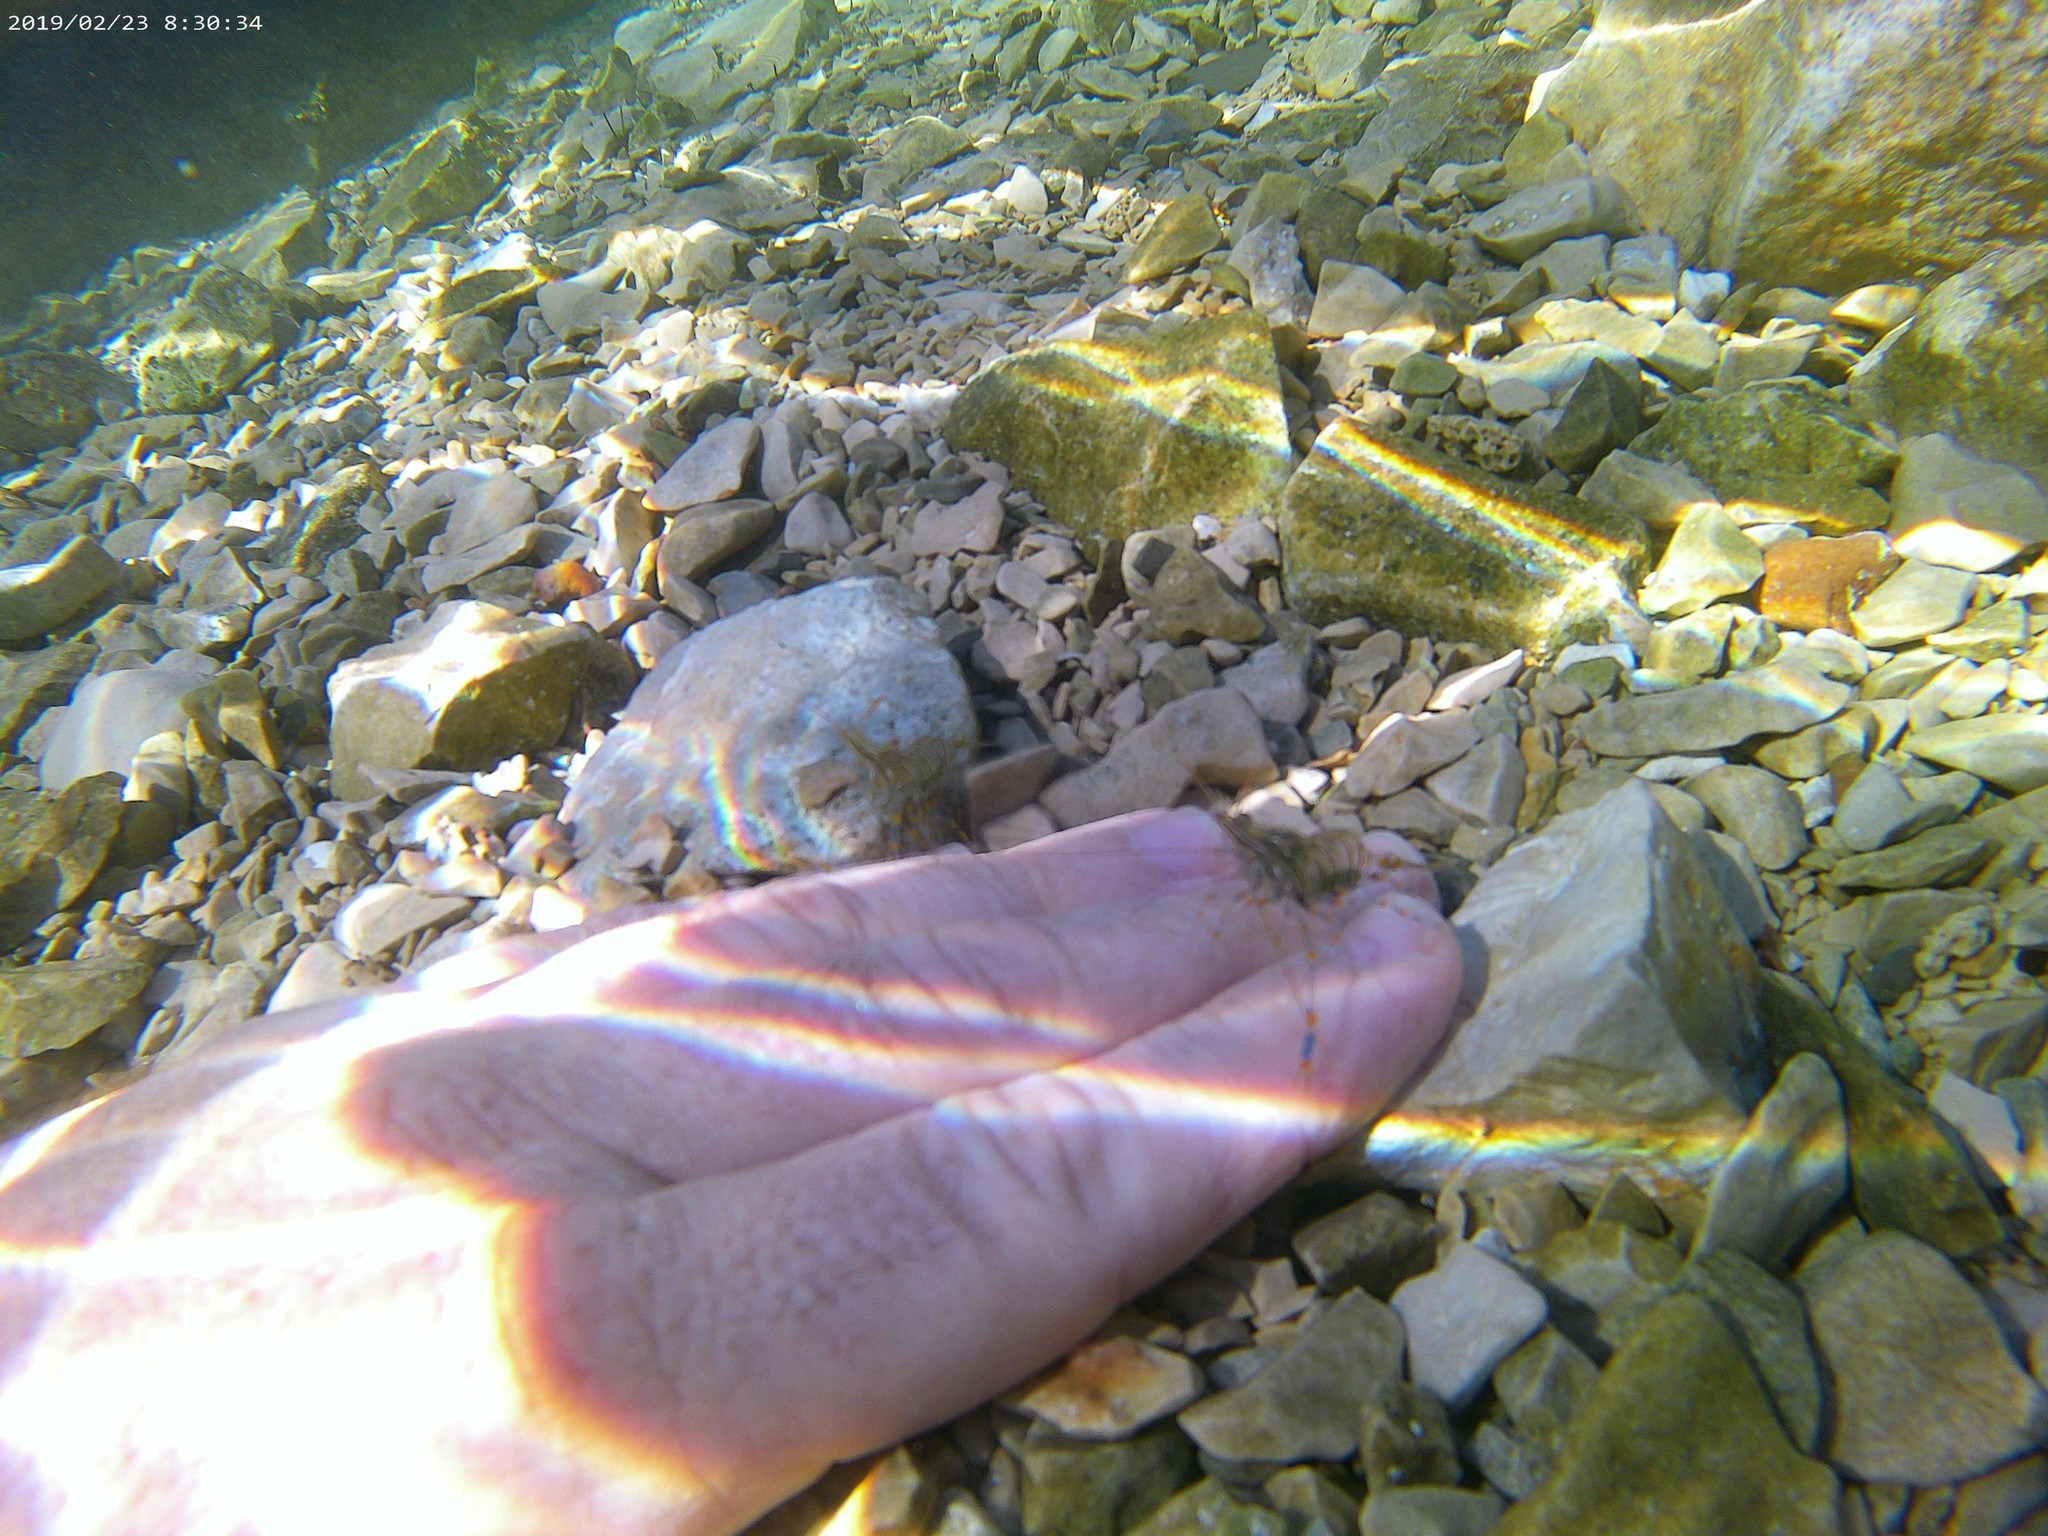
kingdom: Animalia
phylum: Arthropoda
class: Malacostraca
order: Decapoda
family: Palaemonidae
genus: Palaemon
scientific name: Palaemon elegans
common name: Grass prawm
